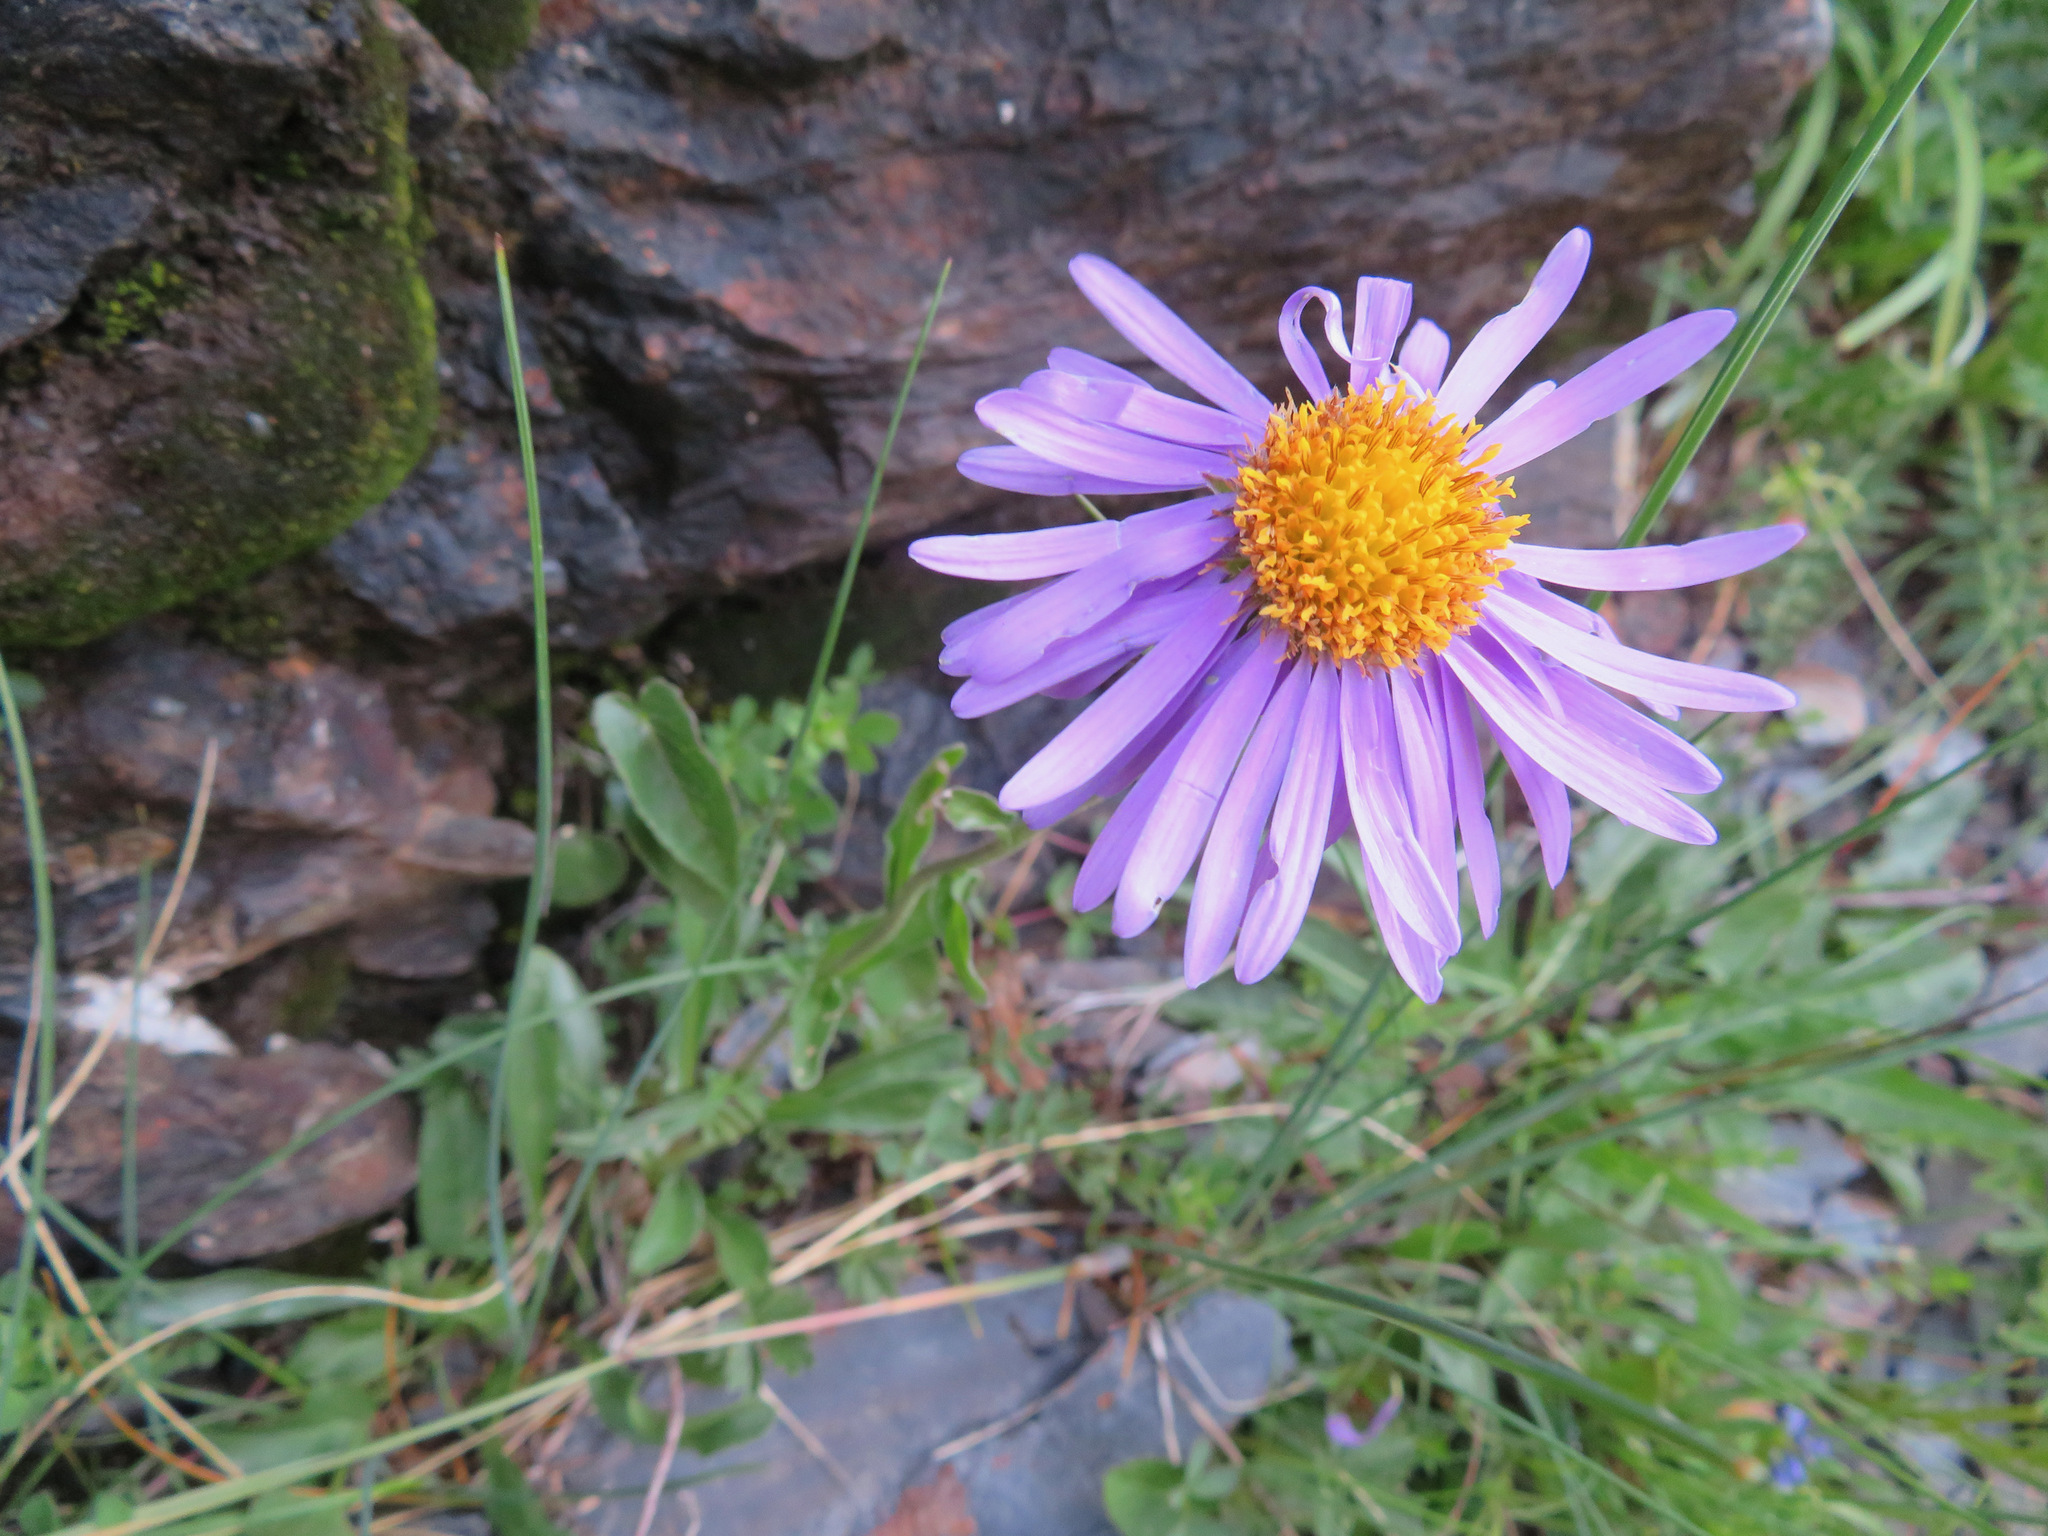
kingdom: Plantae
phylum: Tracheophyta
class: Magnoliopsida
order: Asterales
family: Asteraceae
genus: Aster
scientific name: Aster alpinus
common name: Alpine aster
